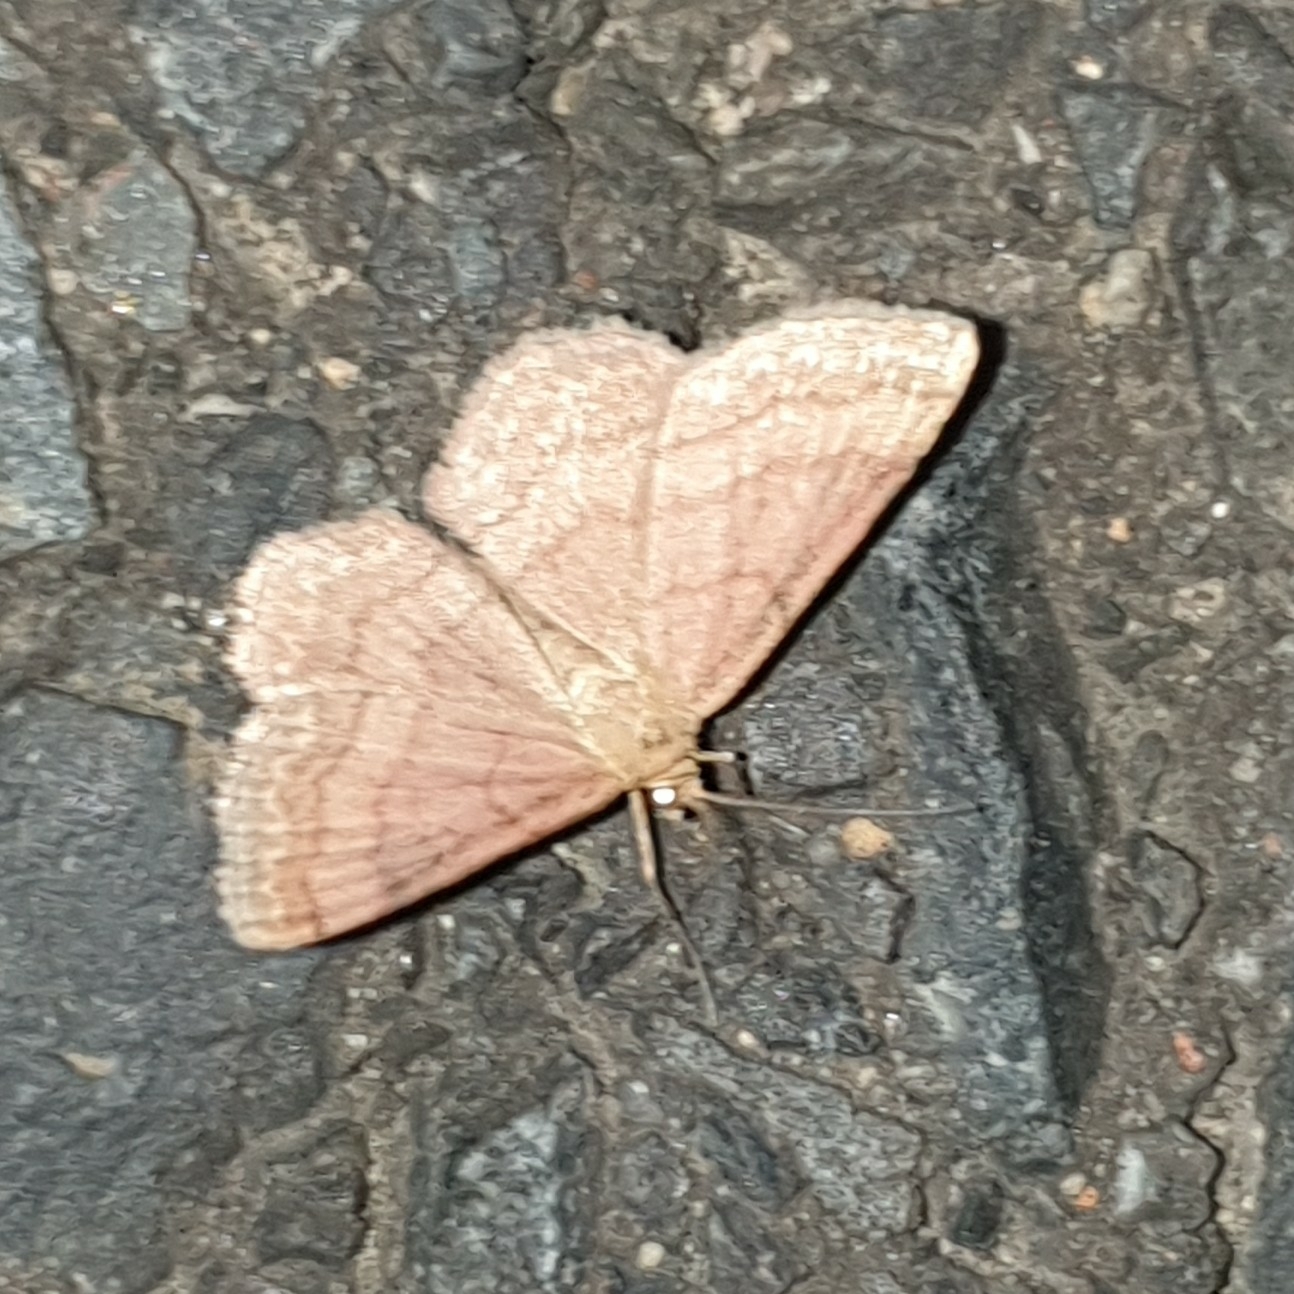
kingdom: Animalia
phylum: Arthropoda
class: Insecta
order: Lepidoptera
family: Geometridae
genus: Scopula
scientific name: Scopula rubiginata
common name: Tawny wave
